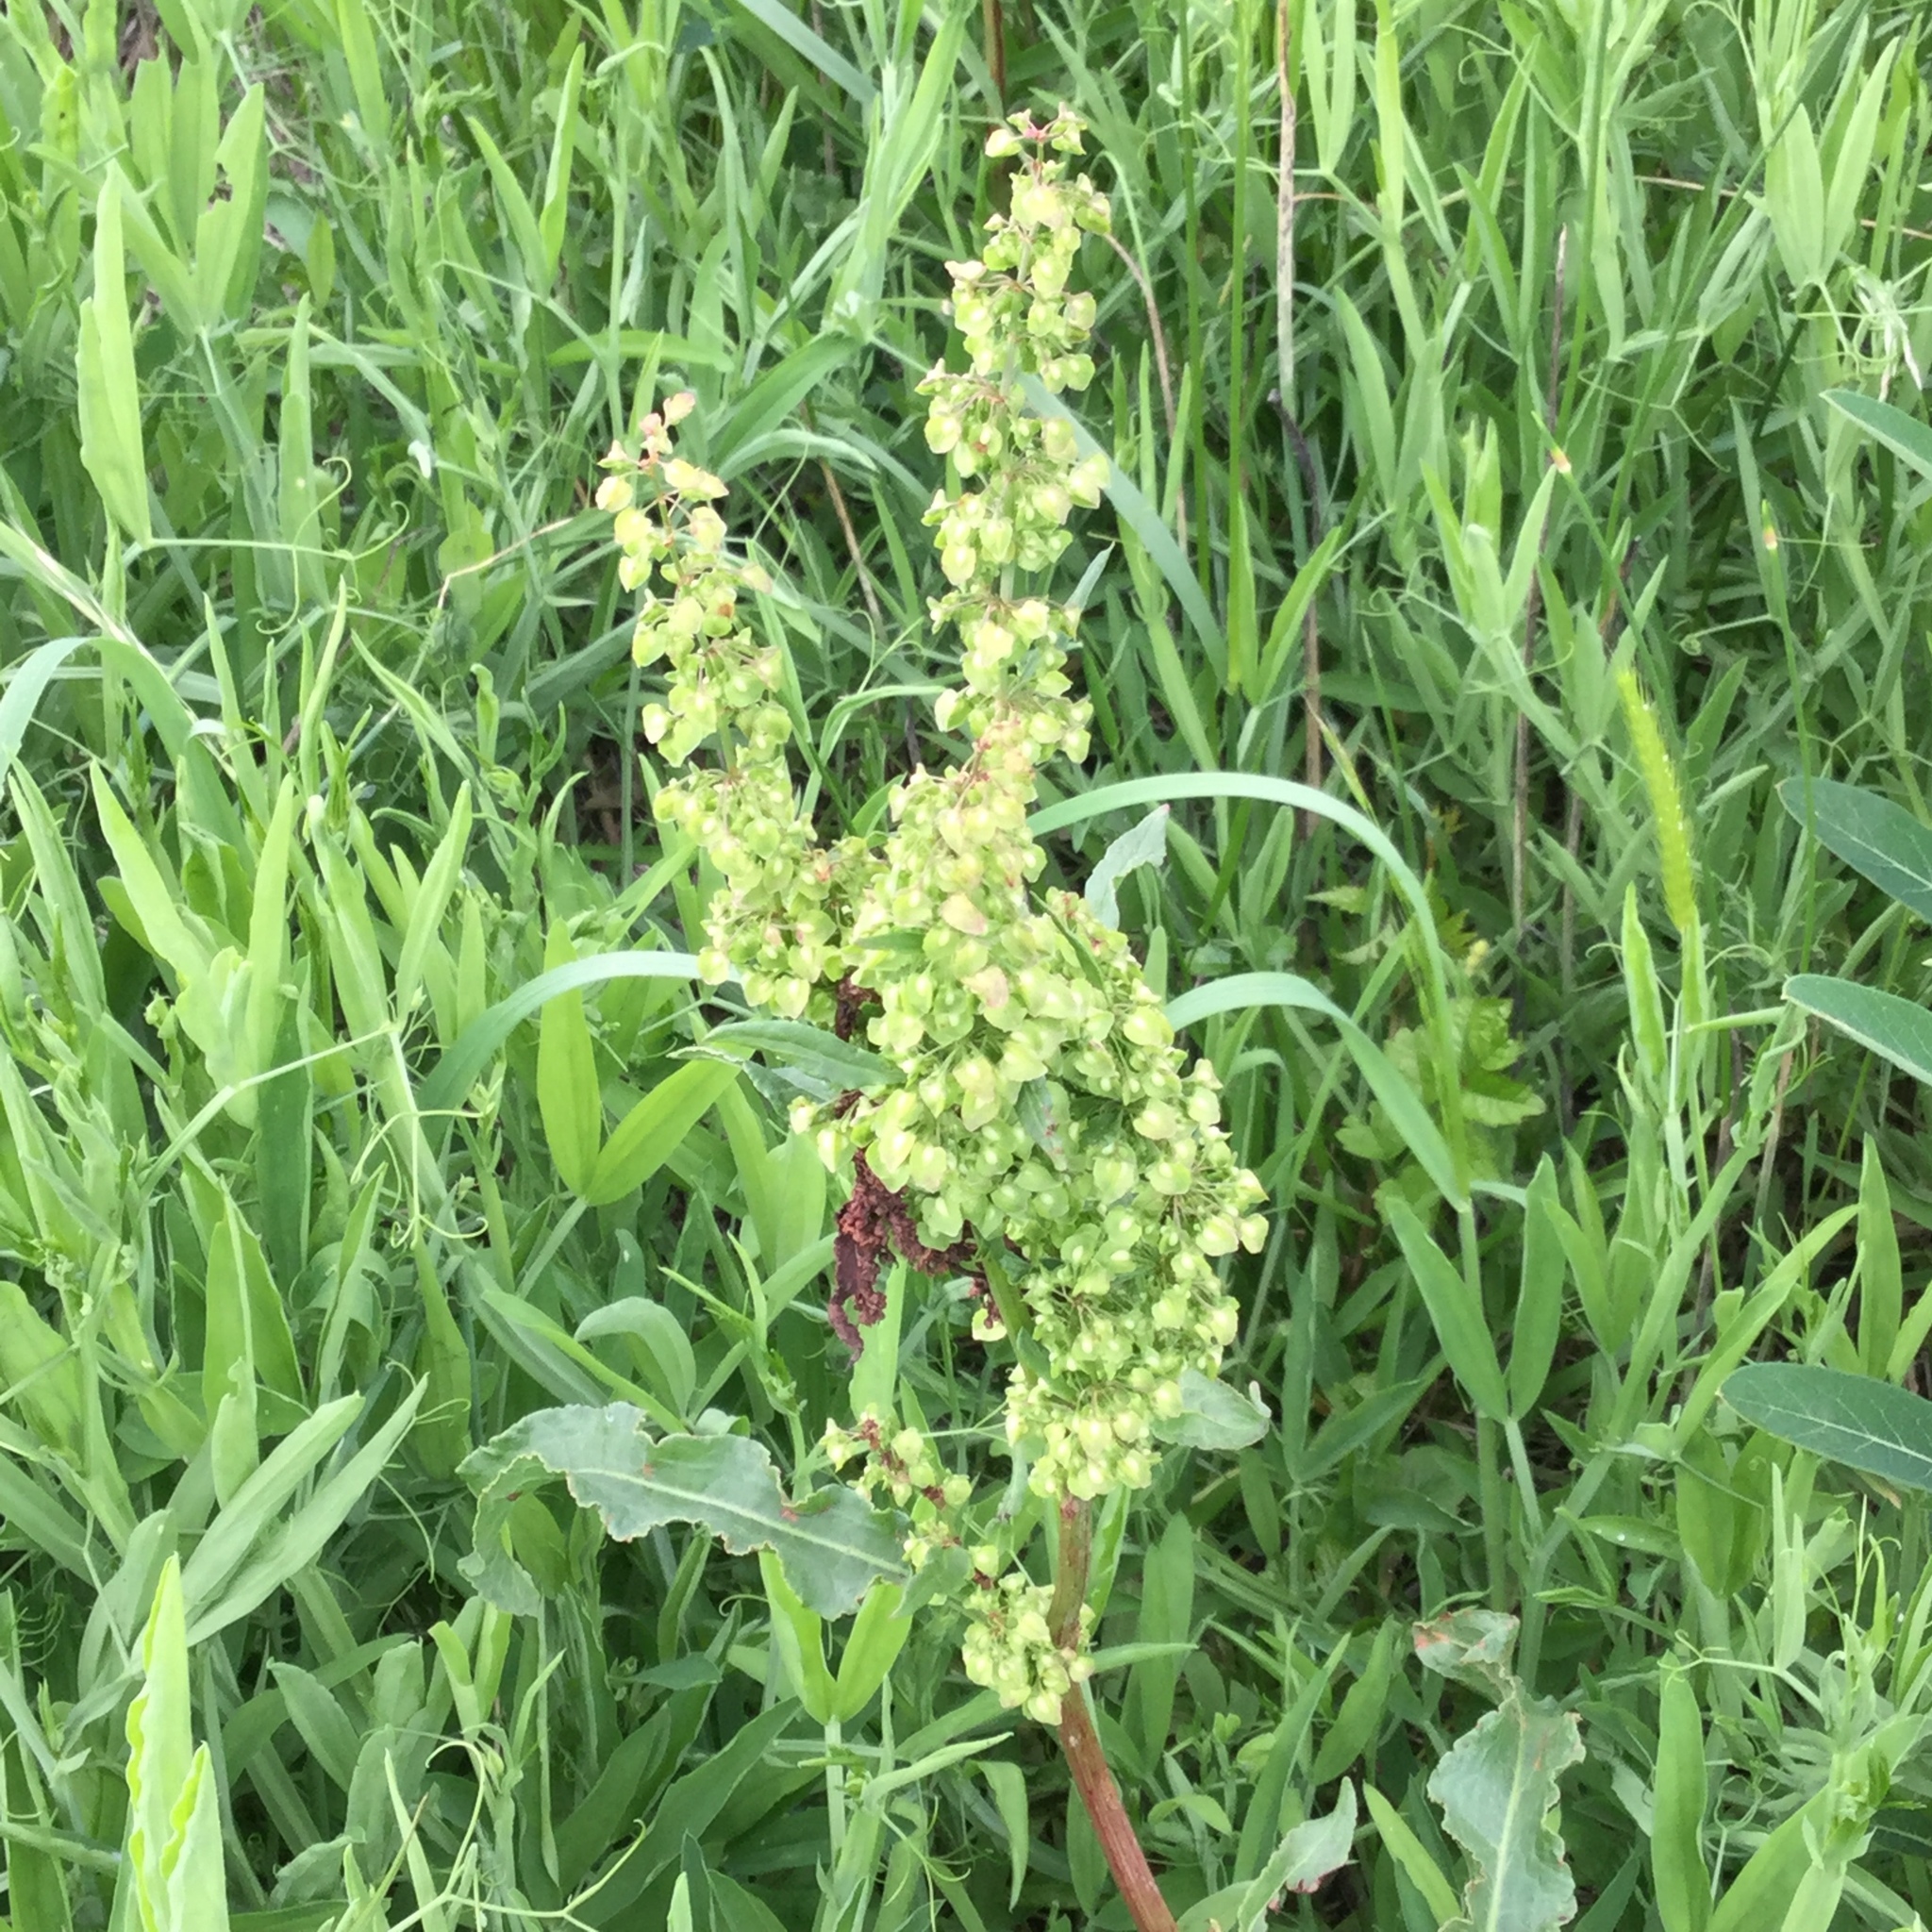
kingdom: Plantae
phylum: Tracheophyta
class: Magnoliopsida
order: Caryophyllales
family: Polygonaceae
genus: Rumex
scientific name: Rumex crispus
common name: Curled dock
